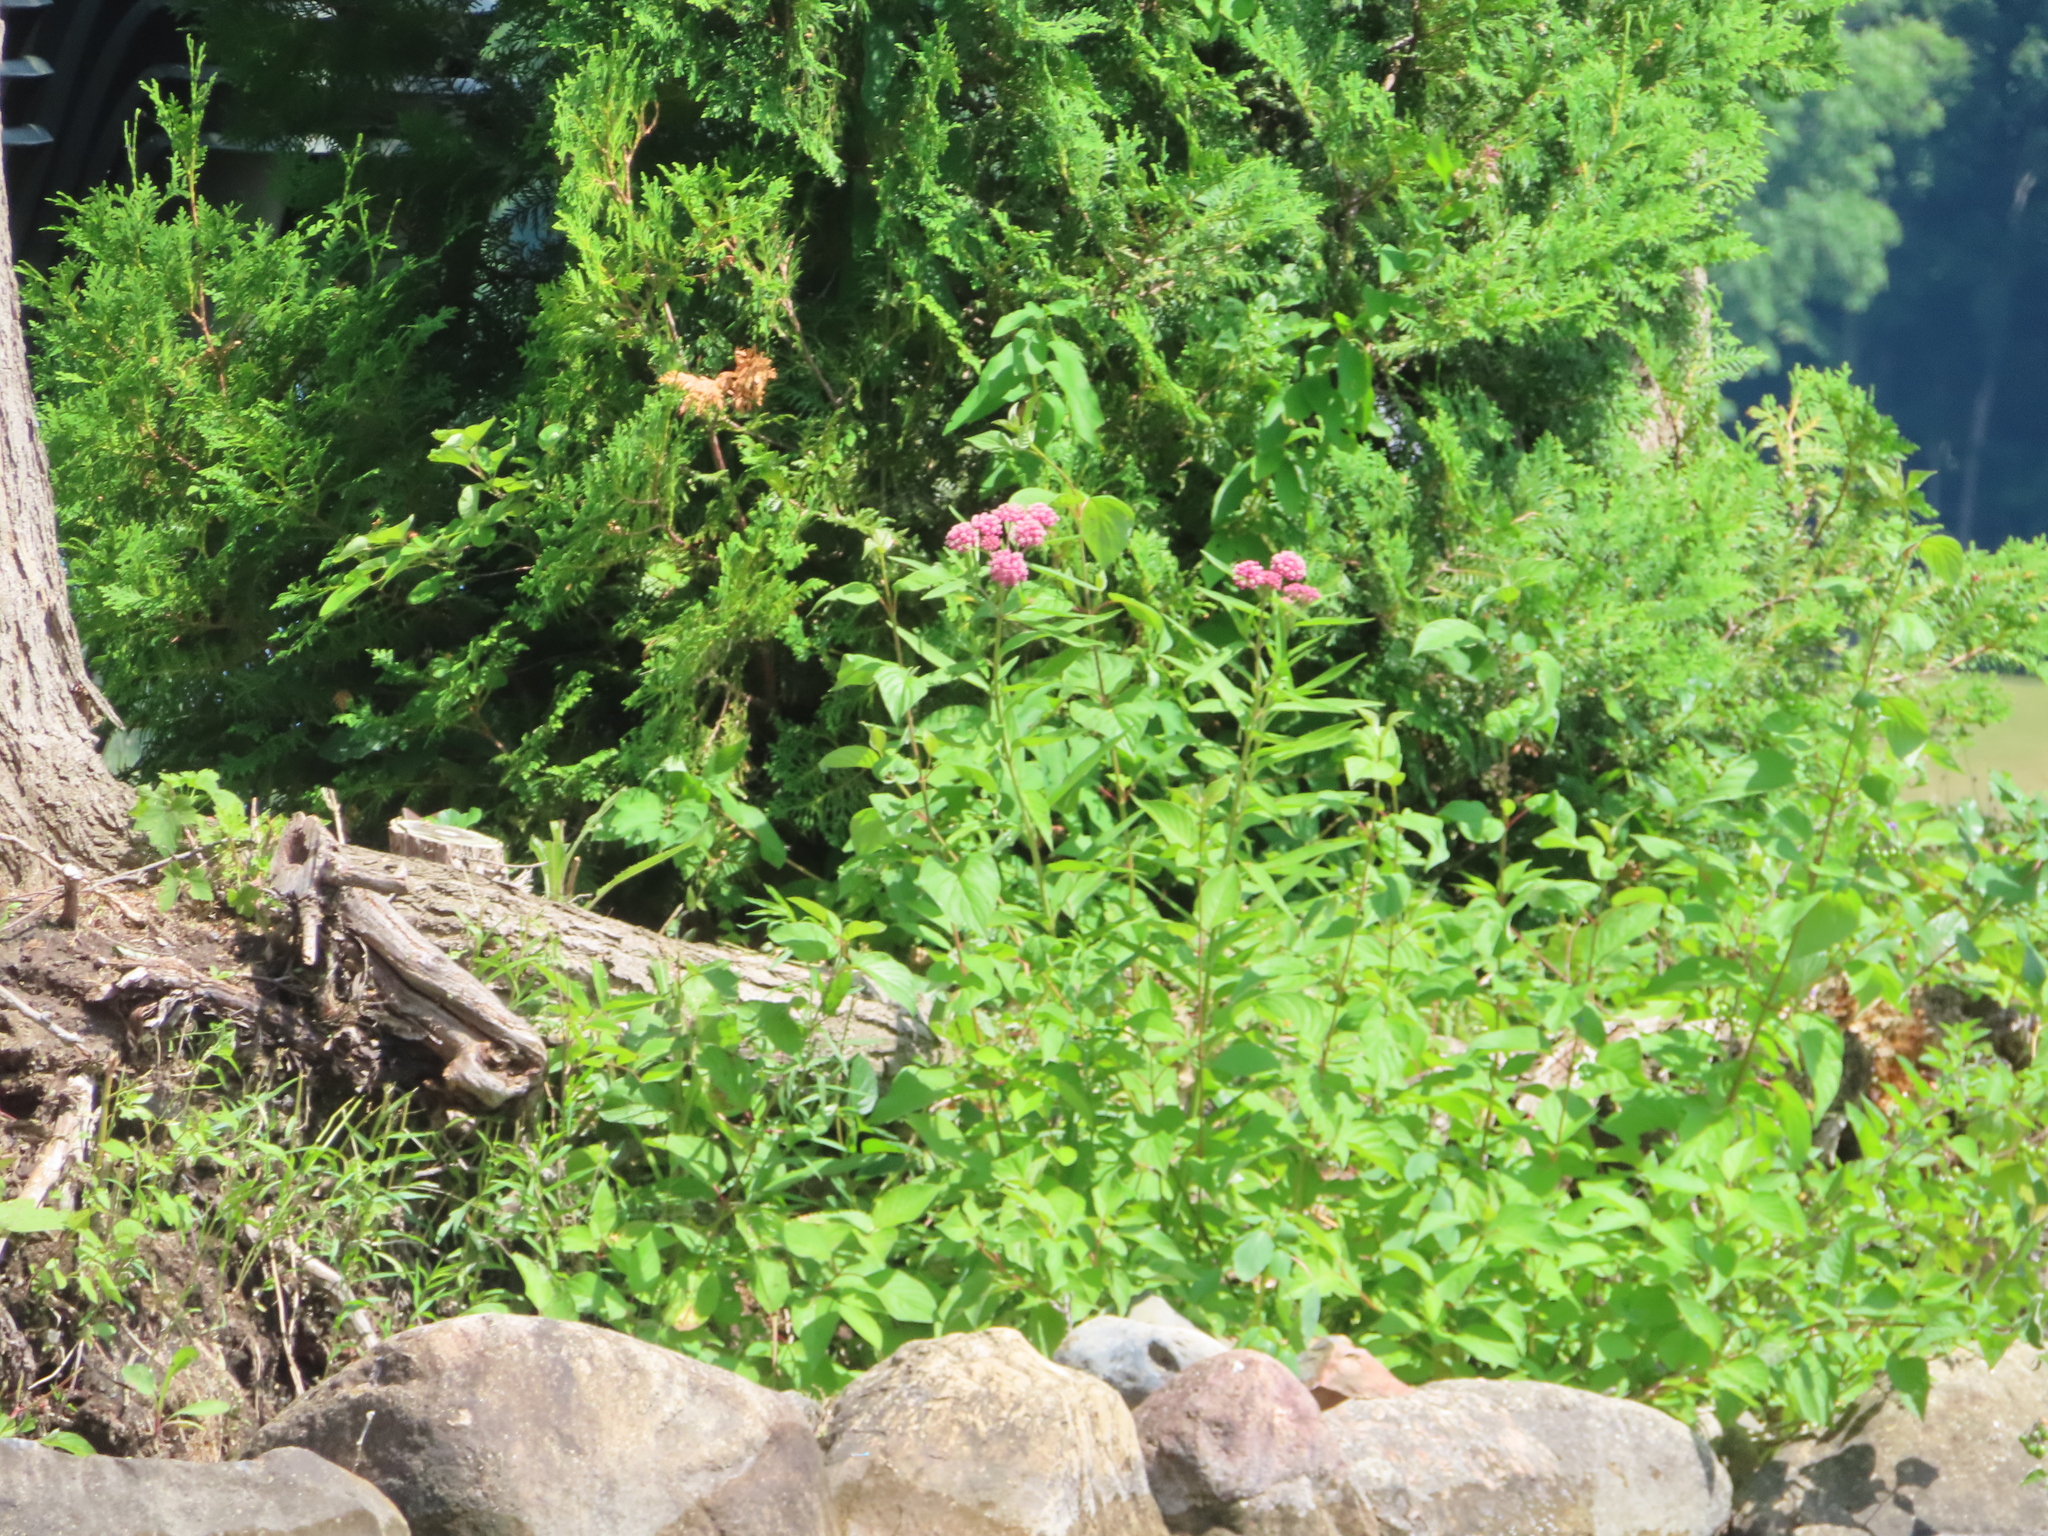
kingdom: Plantae
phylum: Tracheophyta
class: Magnoliopsida
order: Gentianales
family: Apocynaceae
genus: Asclepias
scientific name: Asclepias incarnata
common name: Swamp milkweed
